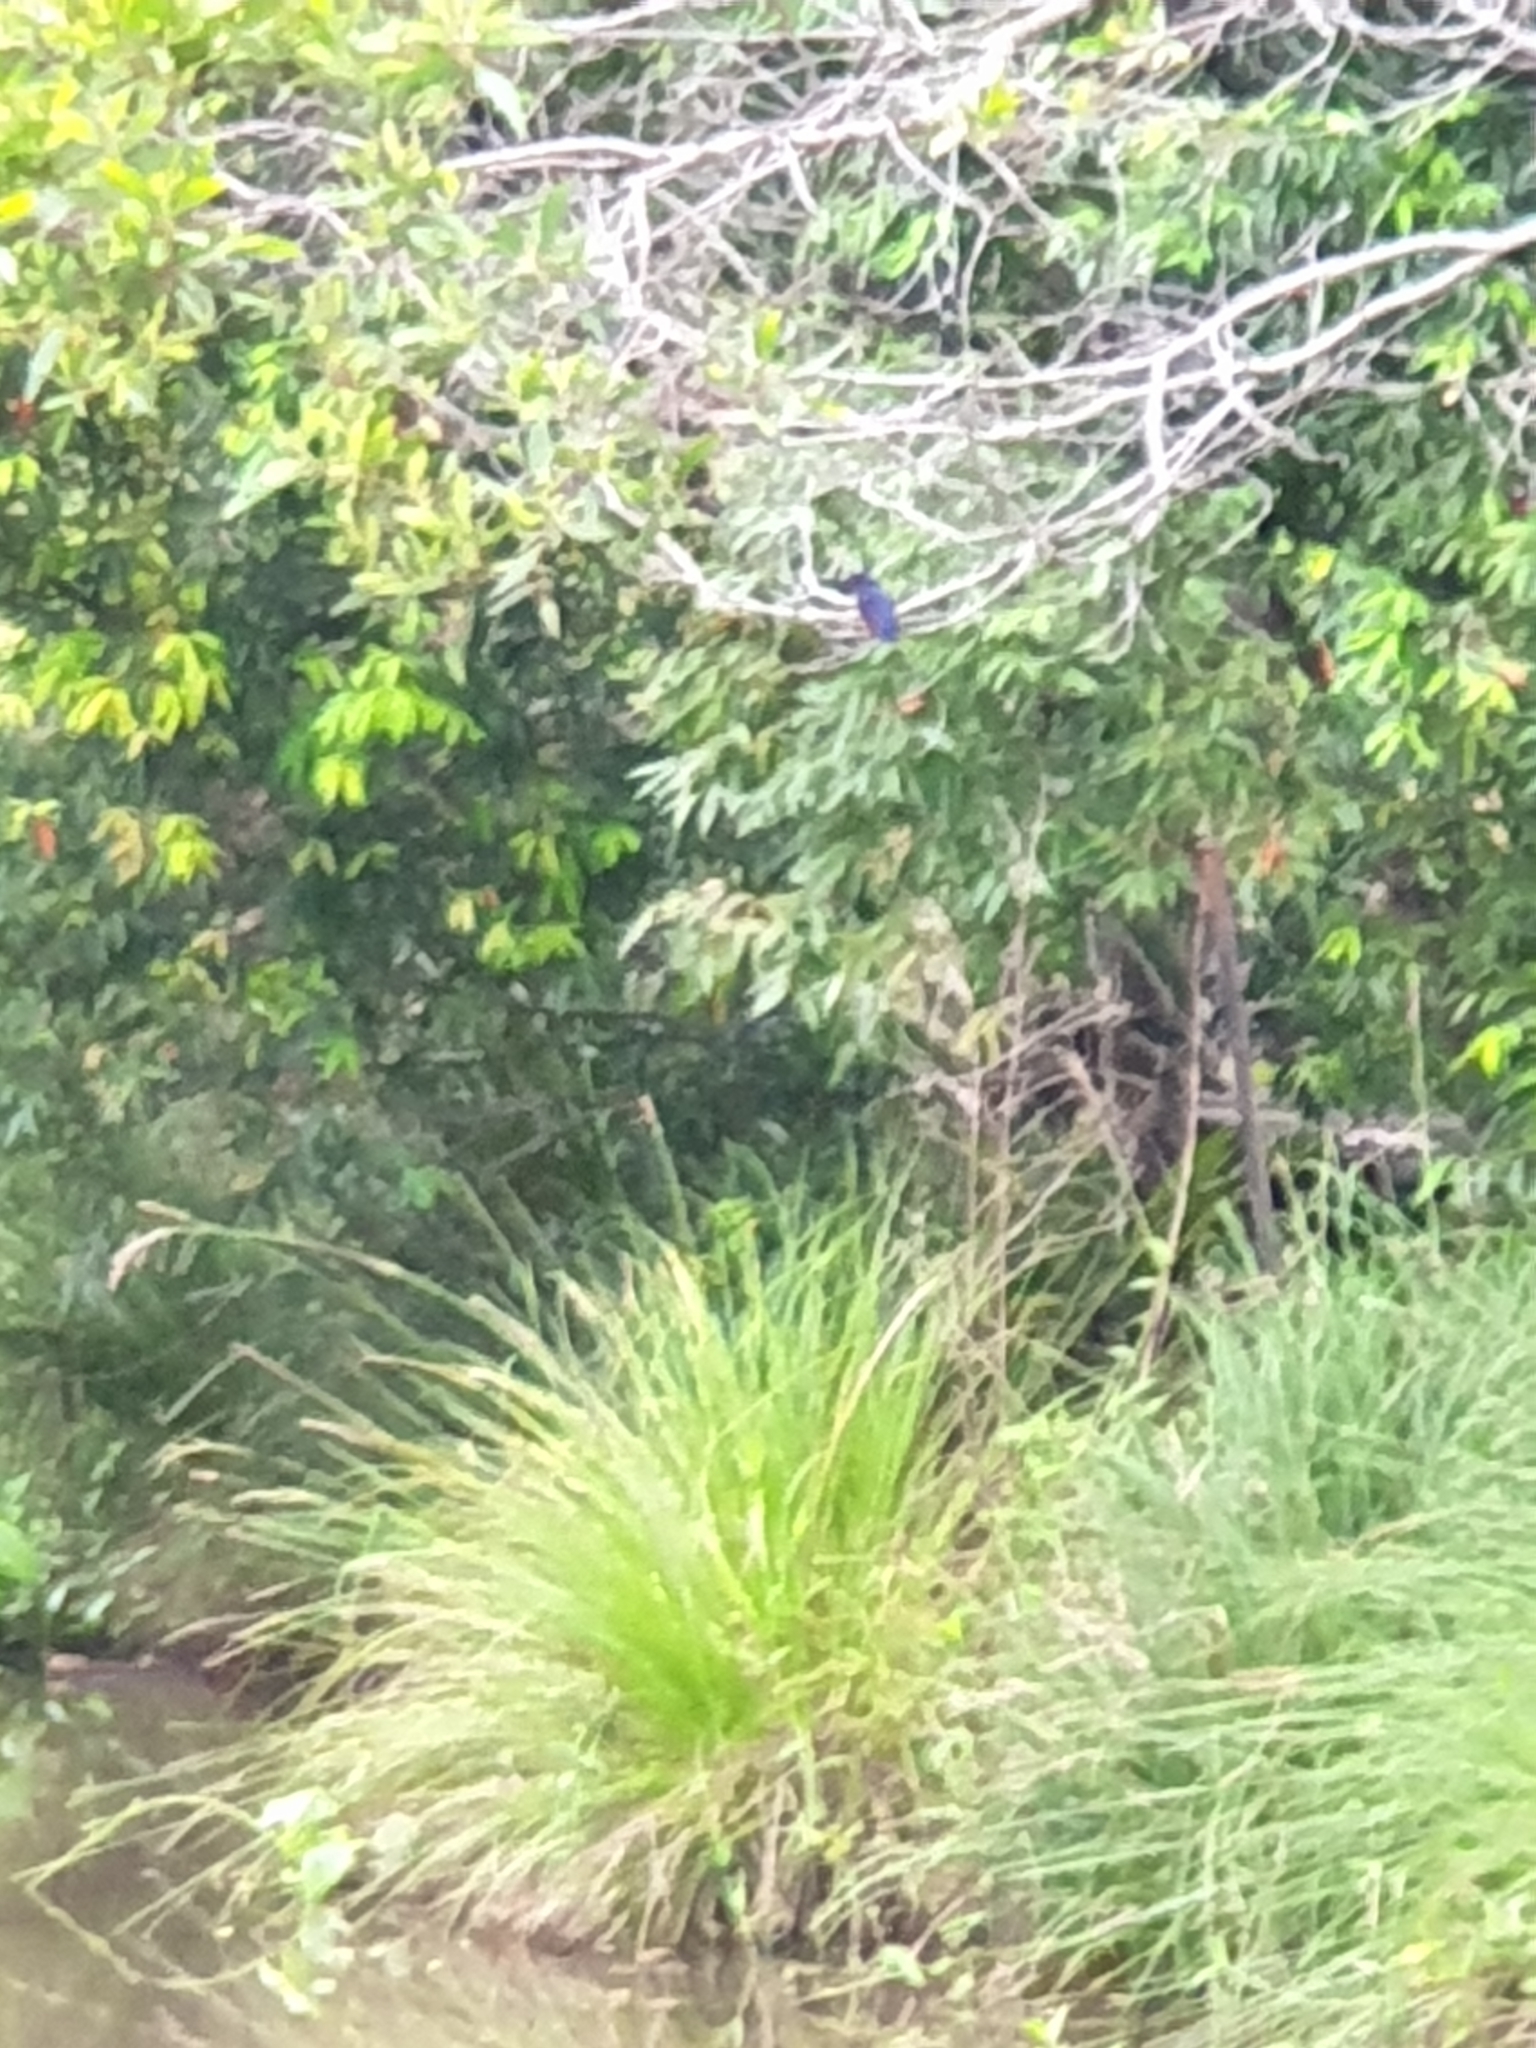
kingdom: Animalia
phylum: Chordata
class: Aves
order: Coraciiformes
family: Alcedinidae
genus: Ceyx
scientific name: Ceyx azureus
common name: Azure kingfisher
